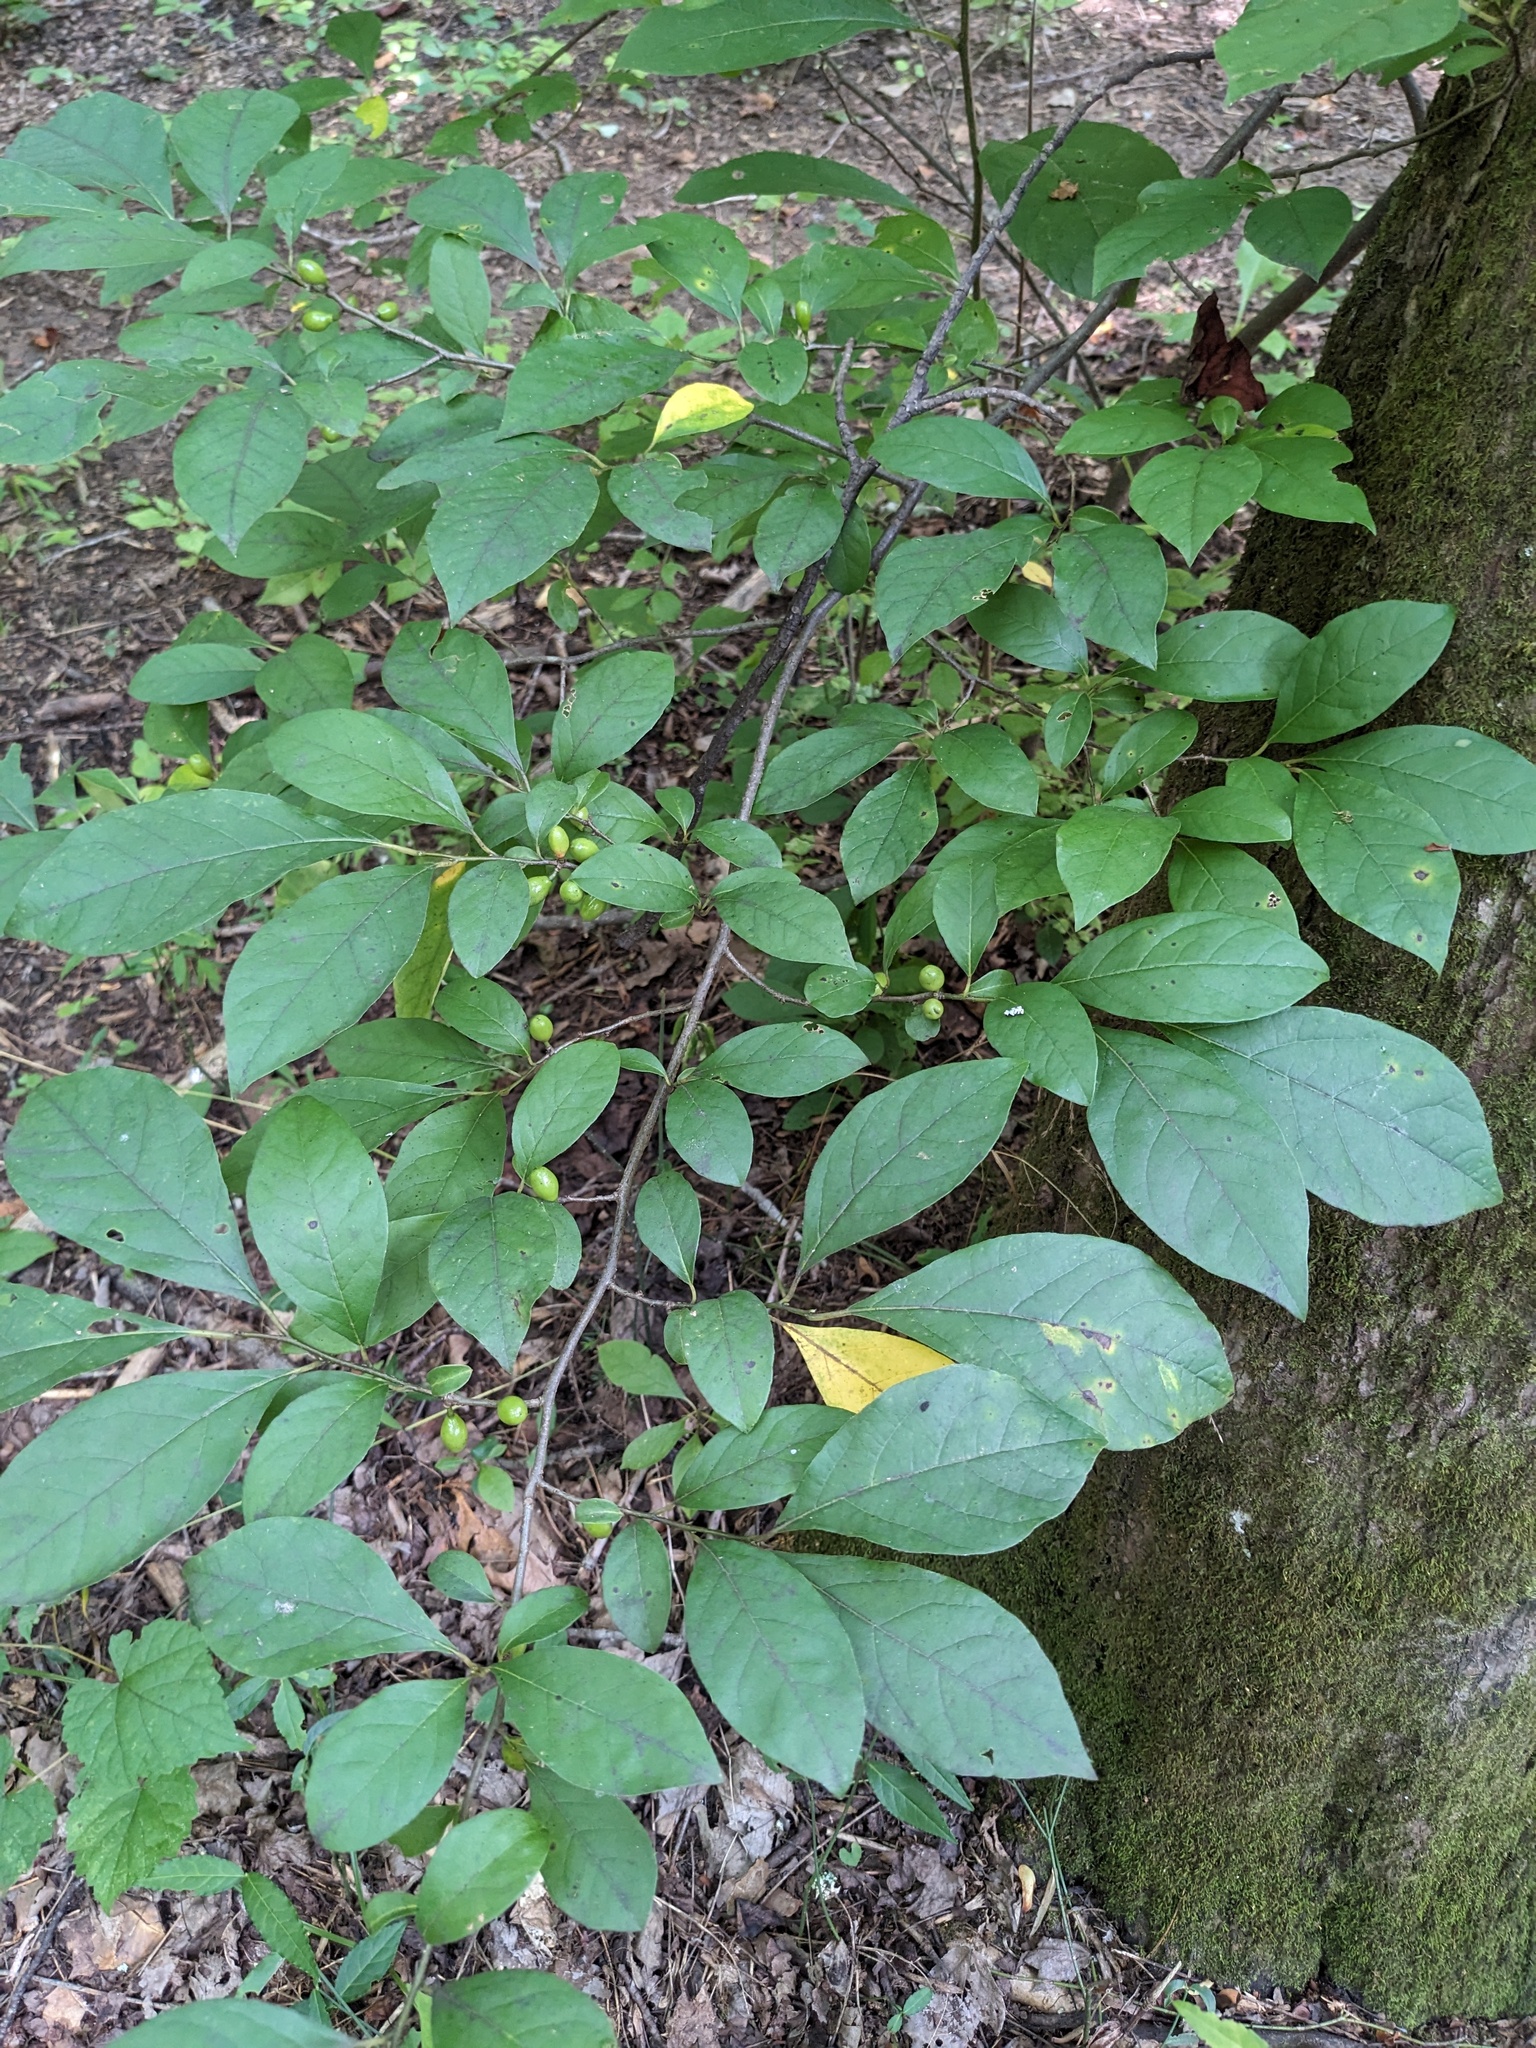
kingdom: Plantae
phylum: Tracheophyta
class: Magnoliopsida
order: Laurales
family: Lauraceae
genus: Lindera
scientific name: Lindera benzoin
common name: Spicebush
